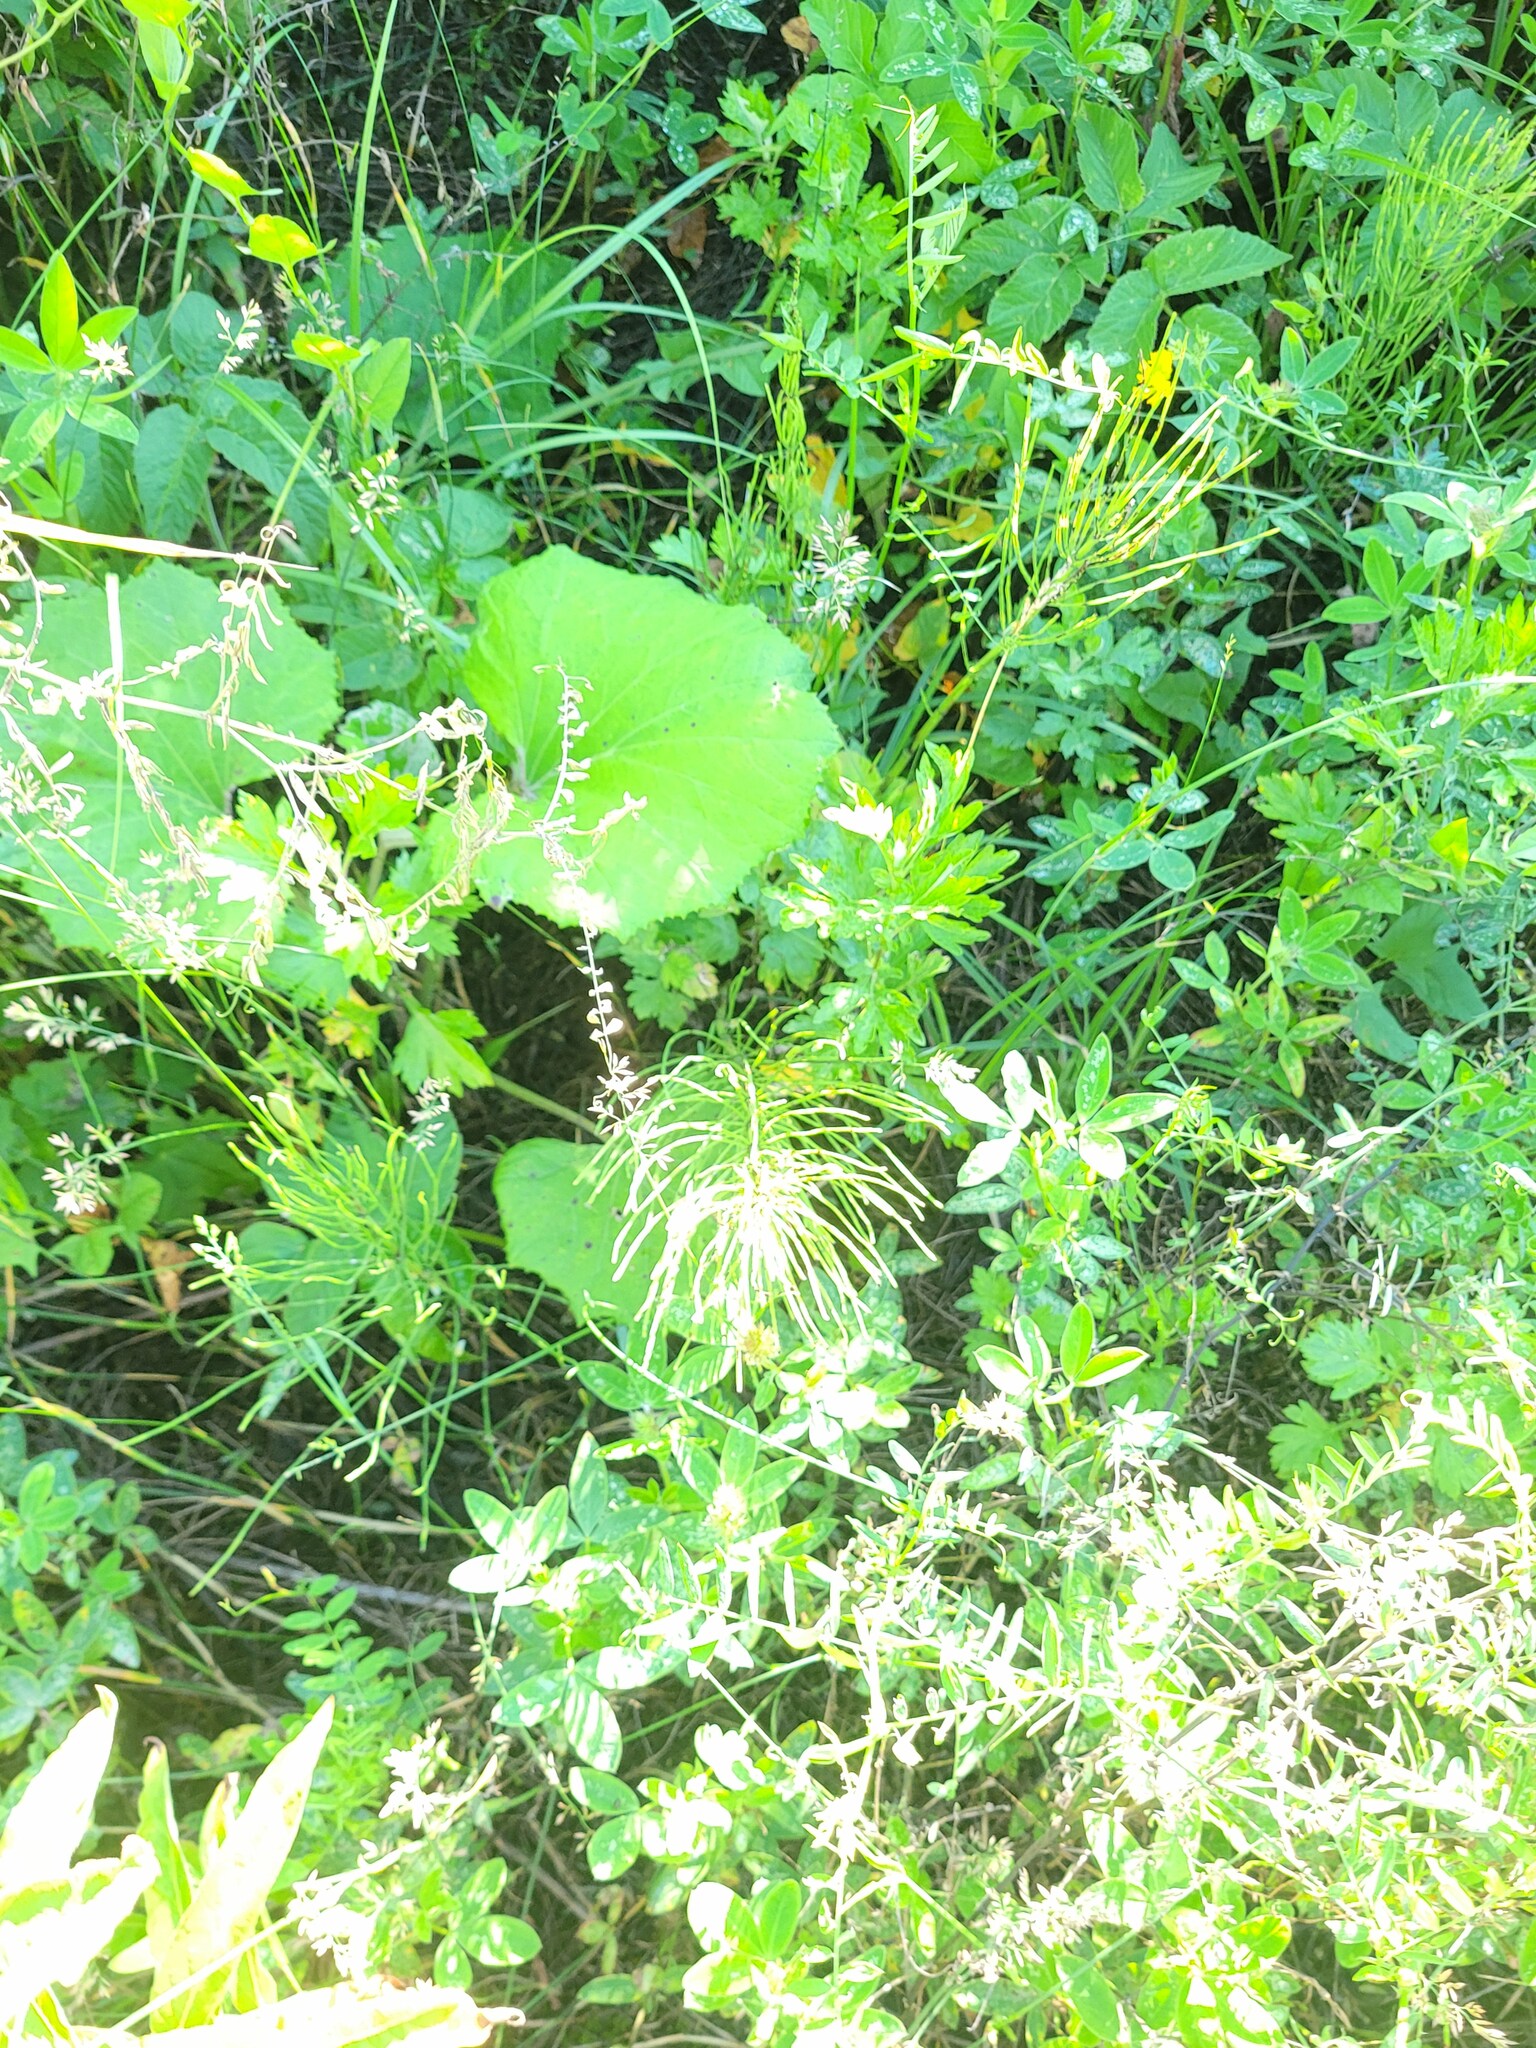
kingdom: Plantae
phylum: Tracheophyta
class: Polypodiopsida
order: Equisetales
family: Equisetaceae
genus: Equisetum
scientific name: Equisetum arvense
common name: Field horsetail
